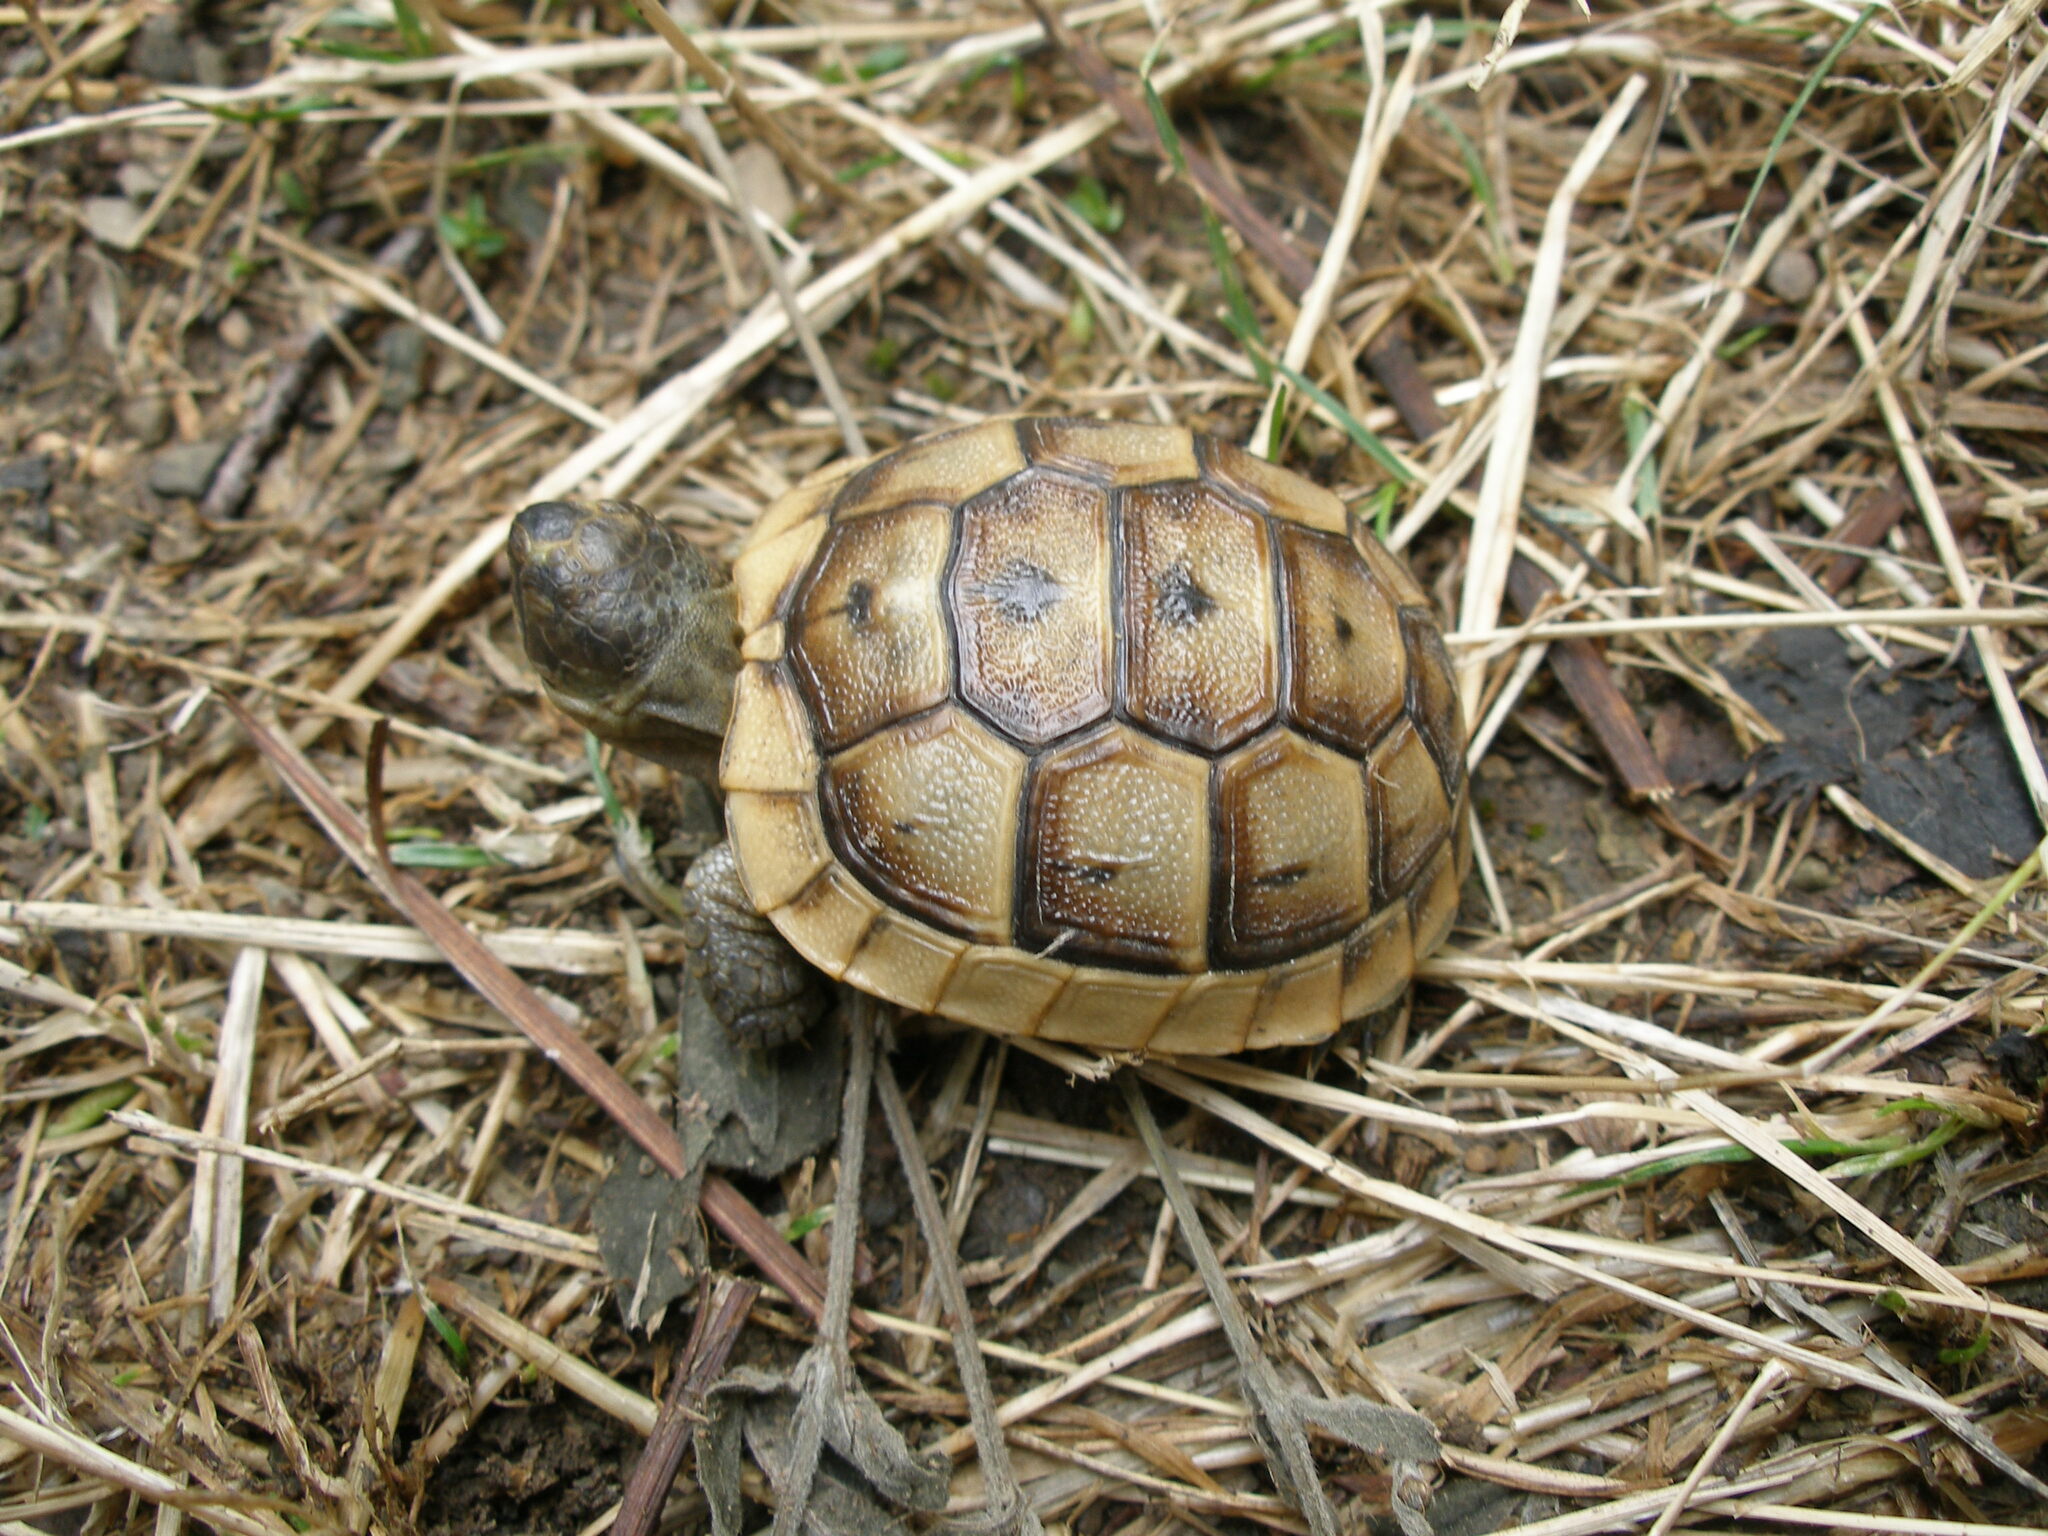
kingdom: Animalia
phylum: Chordata
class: Testudines
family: Testudinidae
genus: Testudo
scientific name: Testudo graeca
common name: Common tortoise
